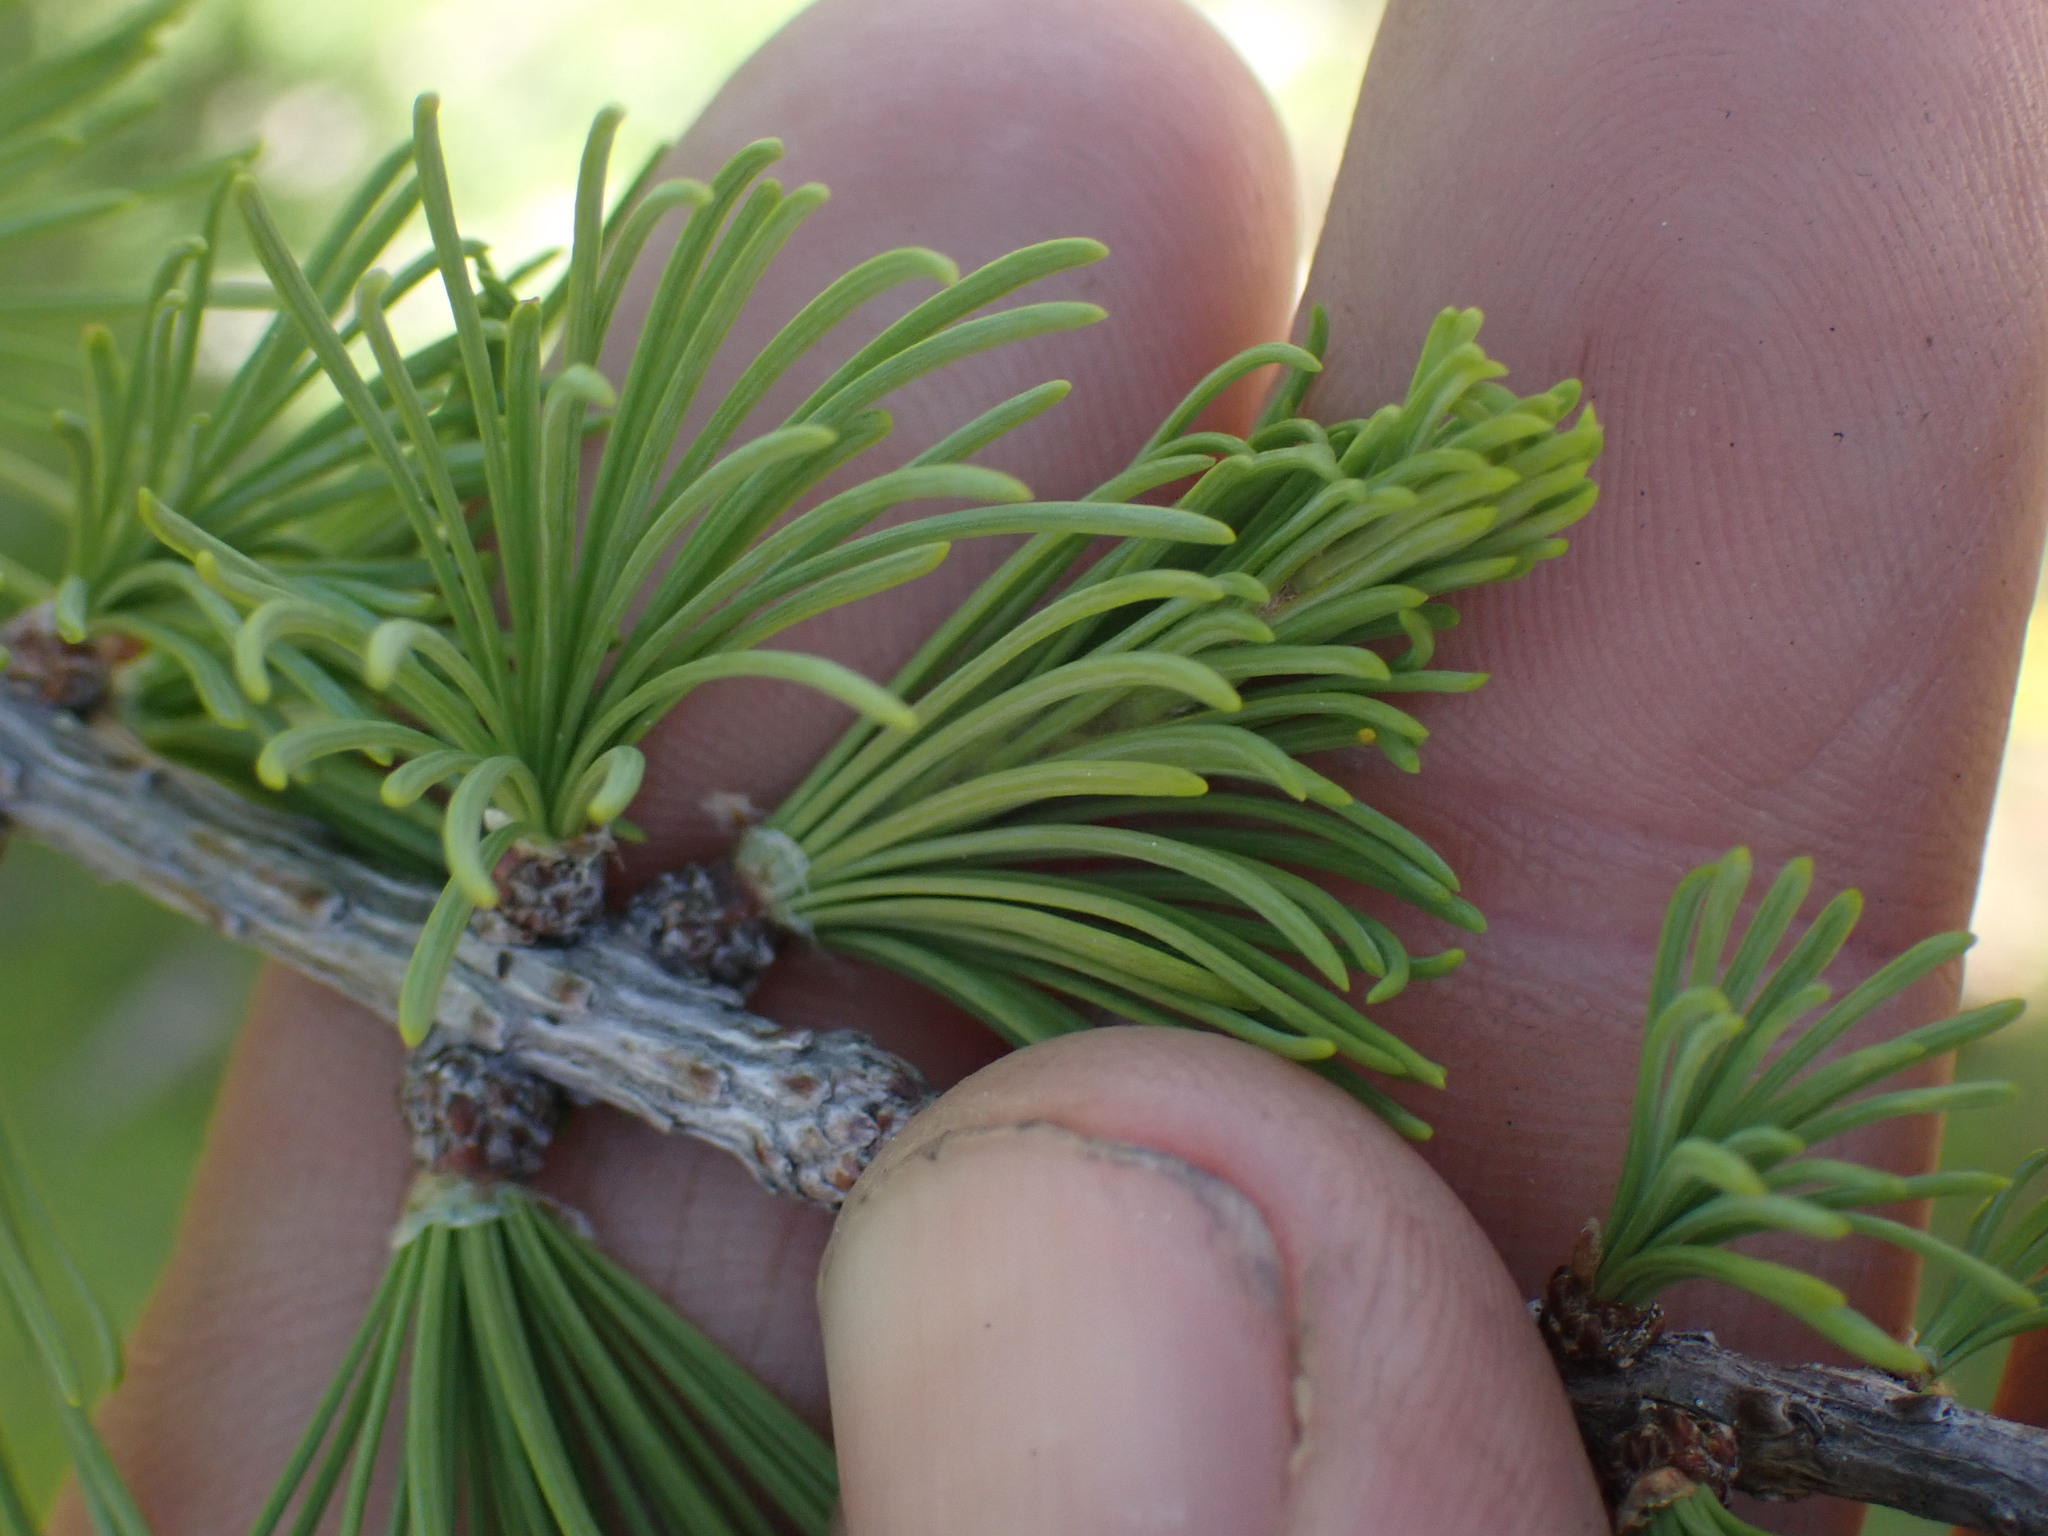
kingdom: Plantae
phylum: Tracheophyta
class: Pinopsida
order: Pinales
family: Pinaceae
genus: Larix
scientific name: Larix lyallii
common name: Alpine larch
